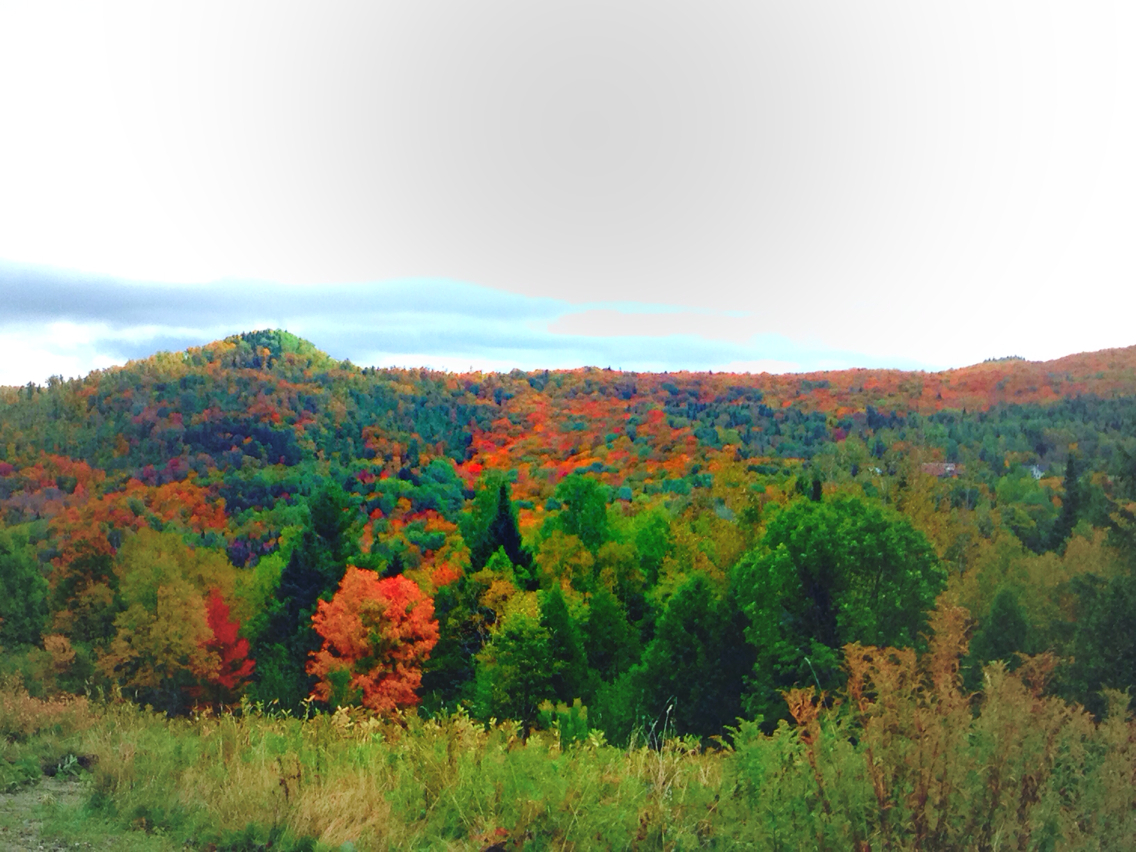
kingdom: Plantae
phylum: Tracheophyta
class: Magnoliopsida
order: Sapindales
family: Sapindaceae
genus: Acer
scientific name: Acer saccharum
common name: Sugar maple
